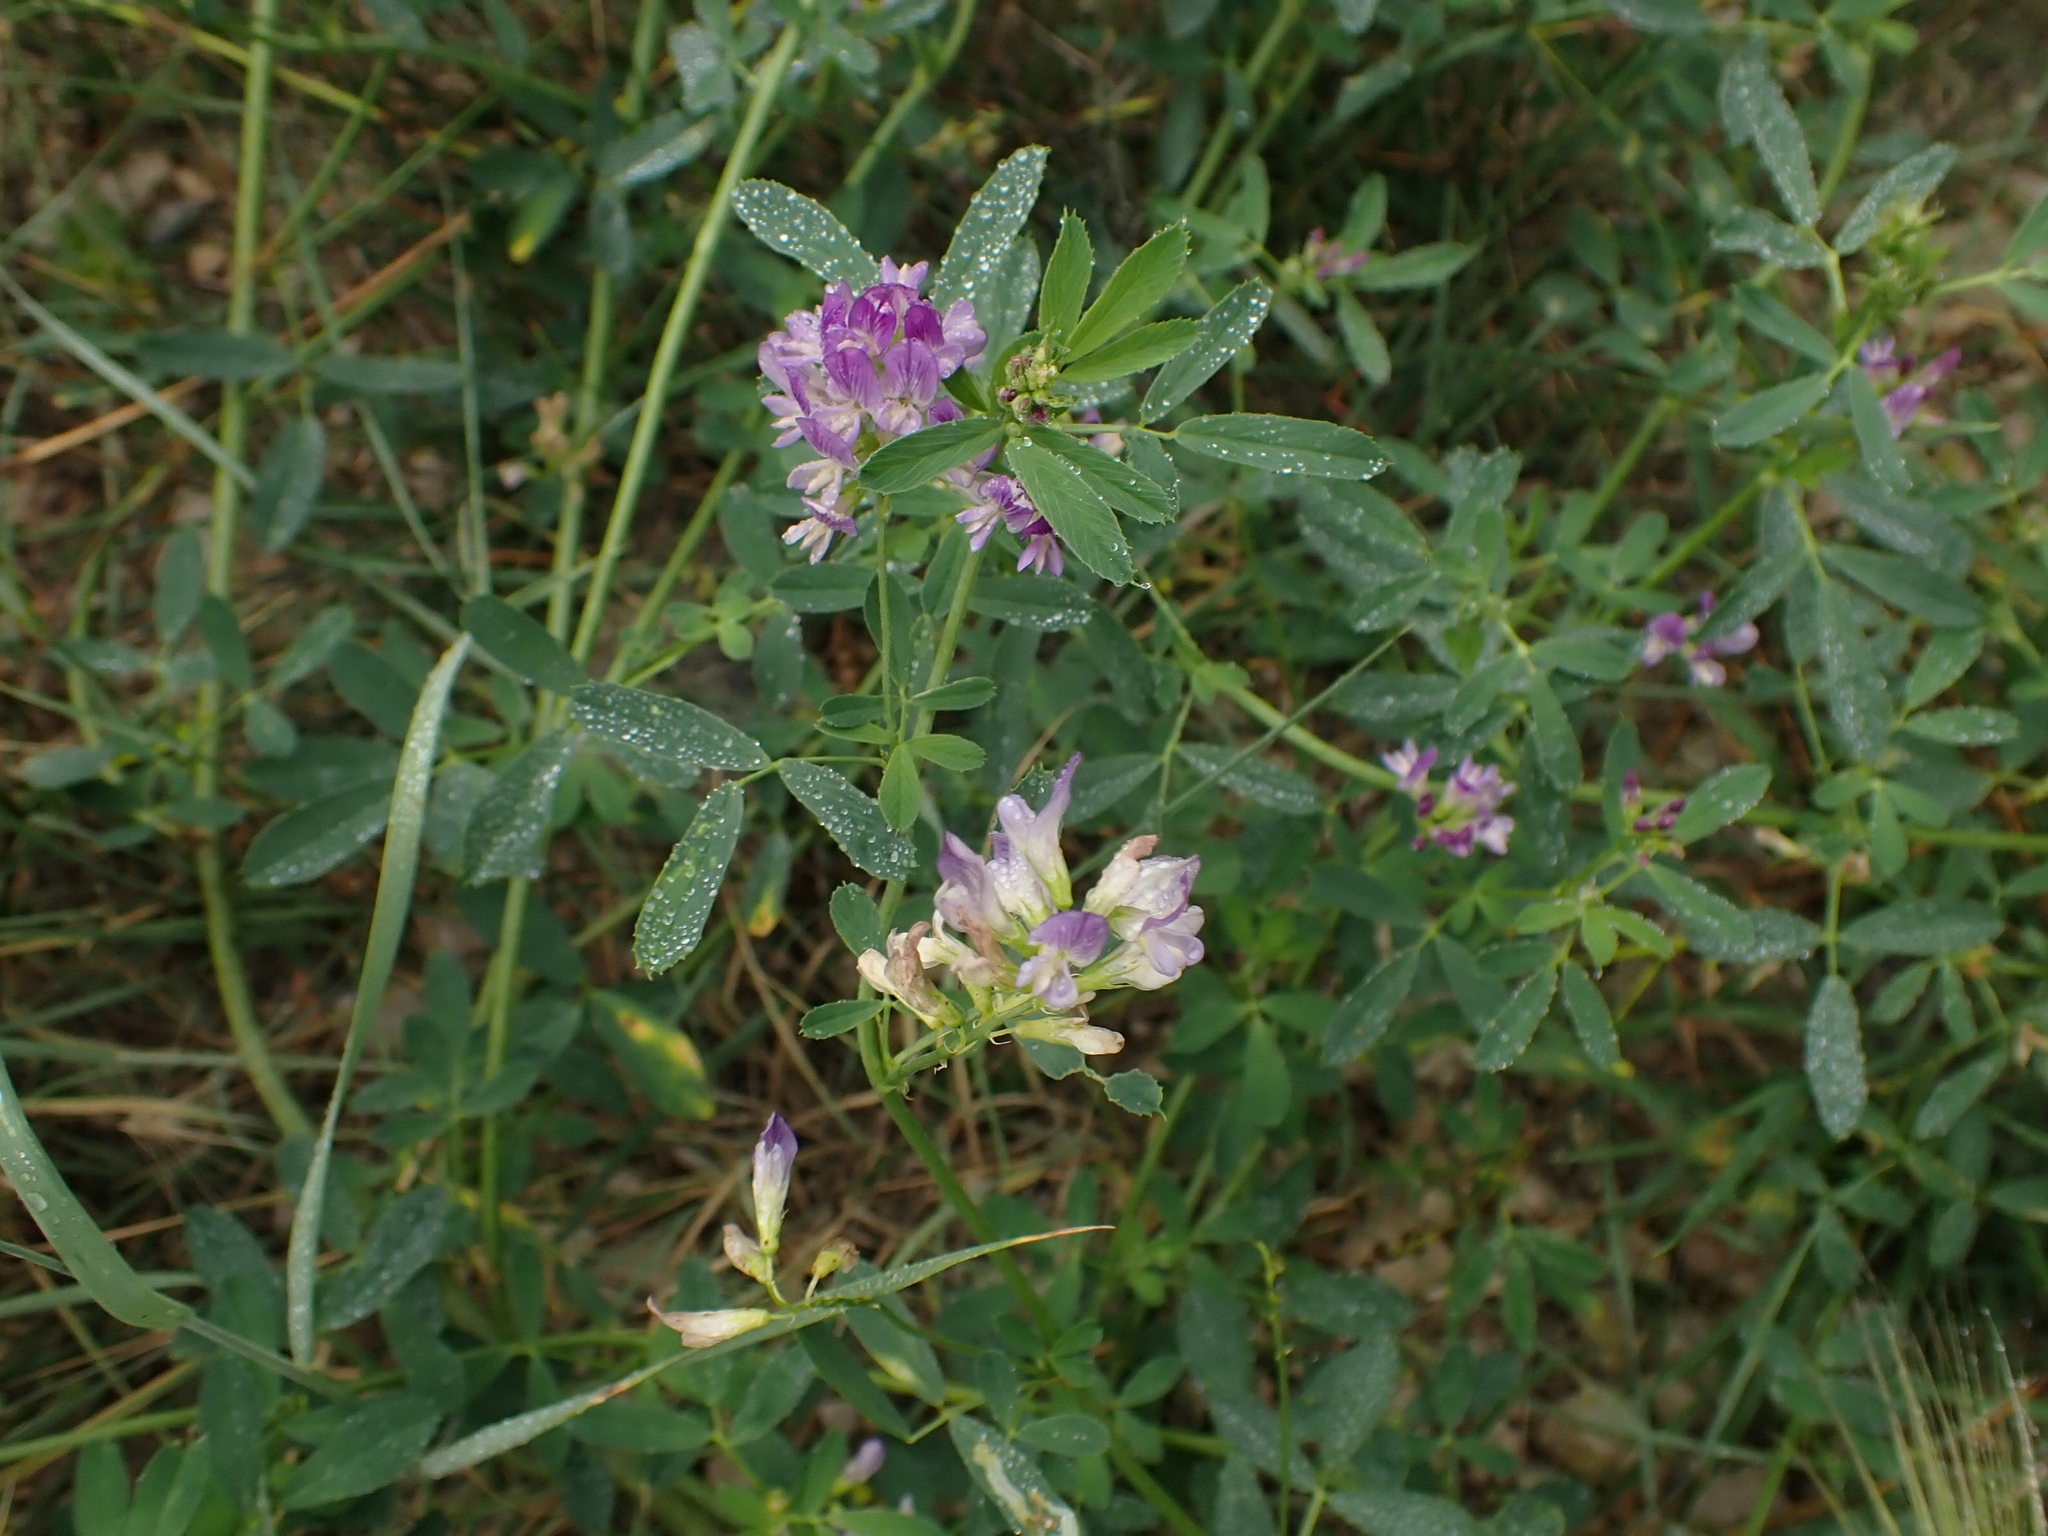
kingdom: Plantae
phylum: Tracheophyta
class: Magnoliopsida
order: Fabales
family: Fabaceae
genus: Medicago
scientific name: Medicago sativa
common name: Alfalfa
